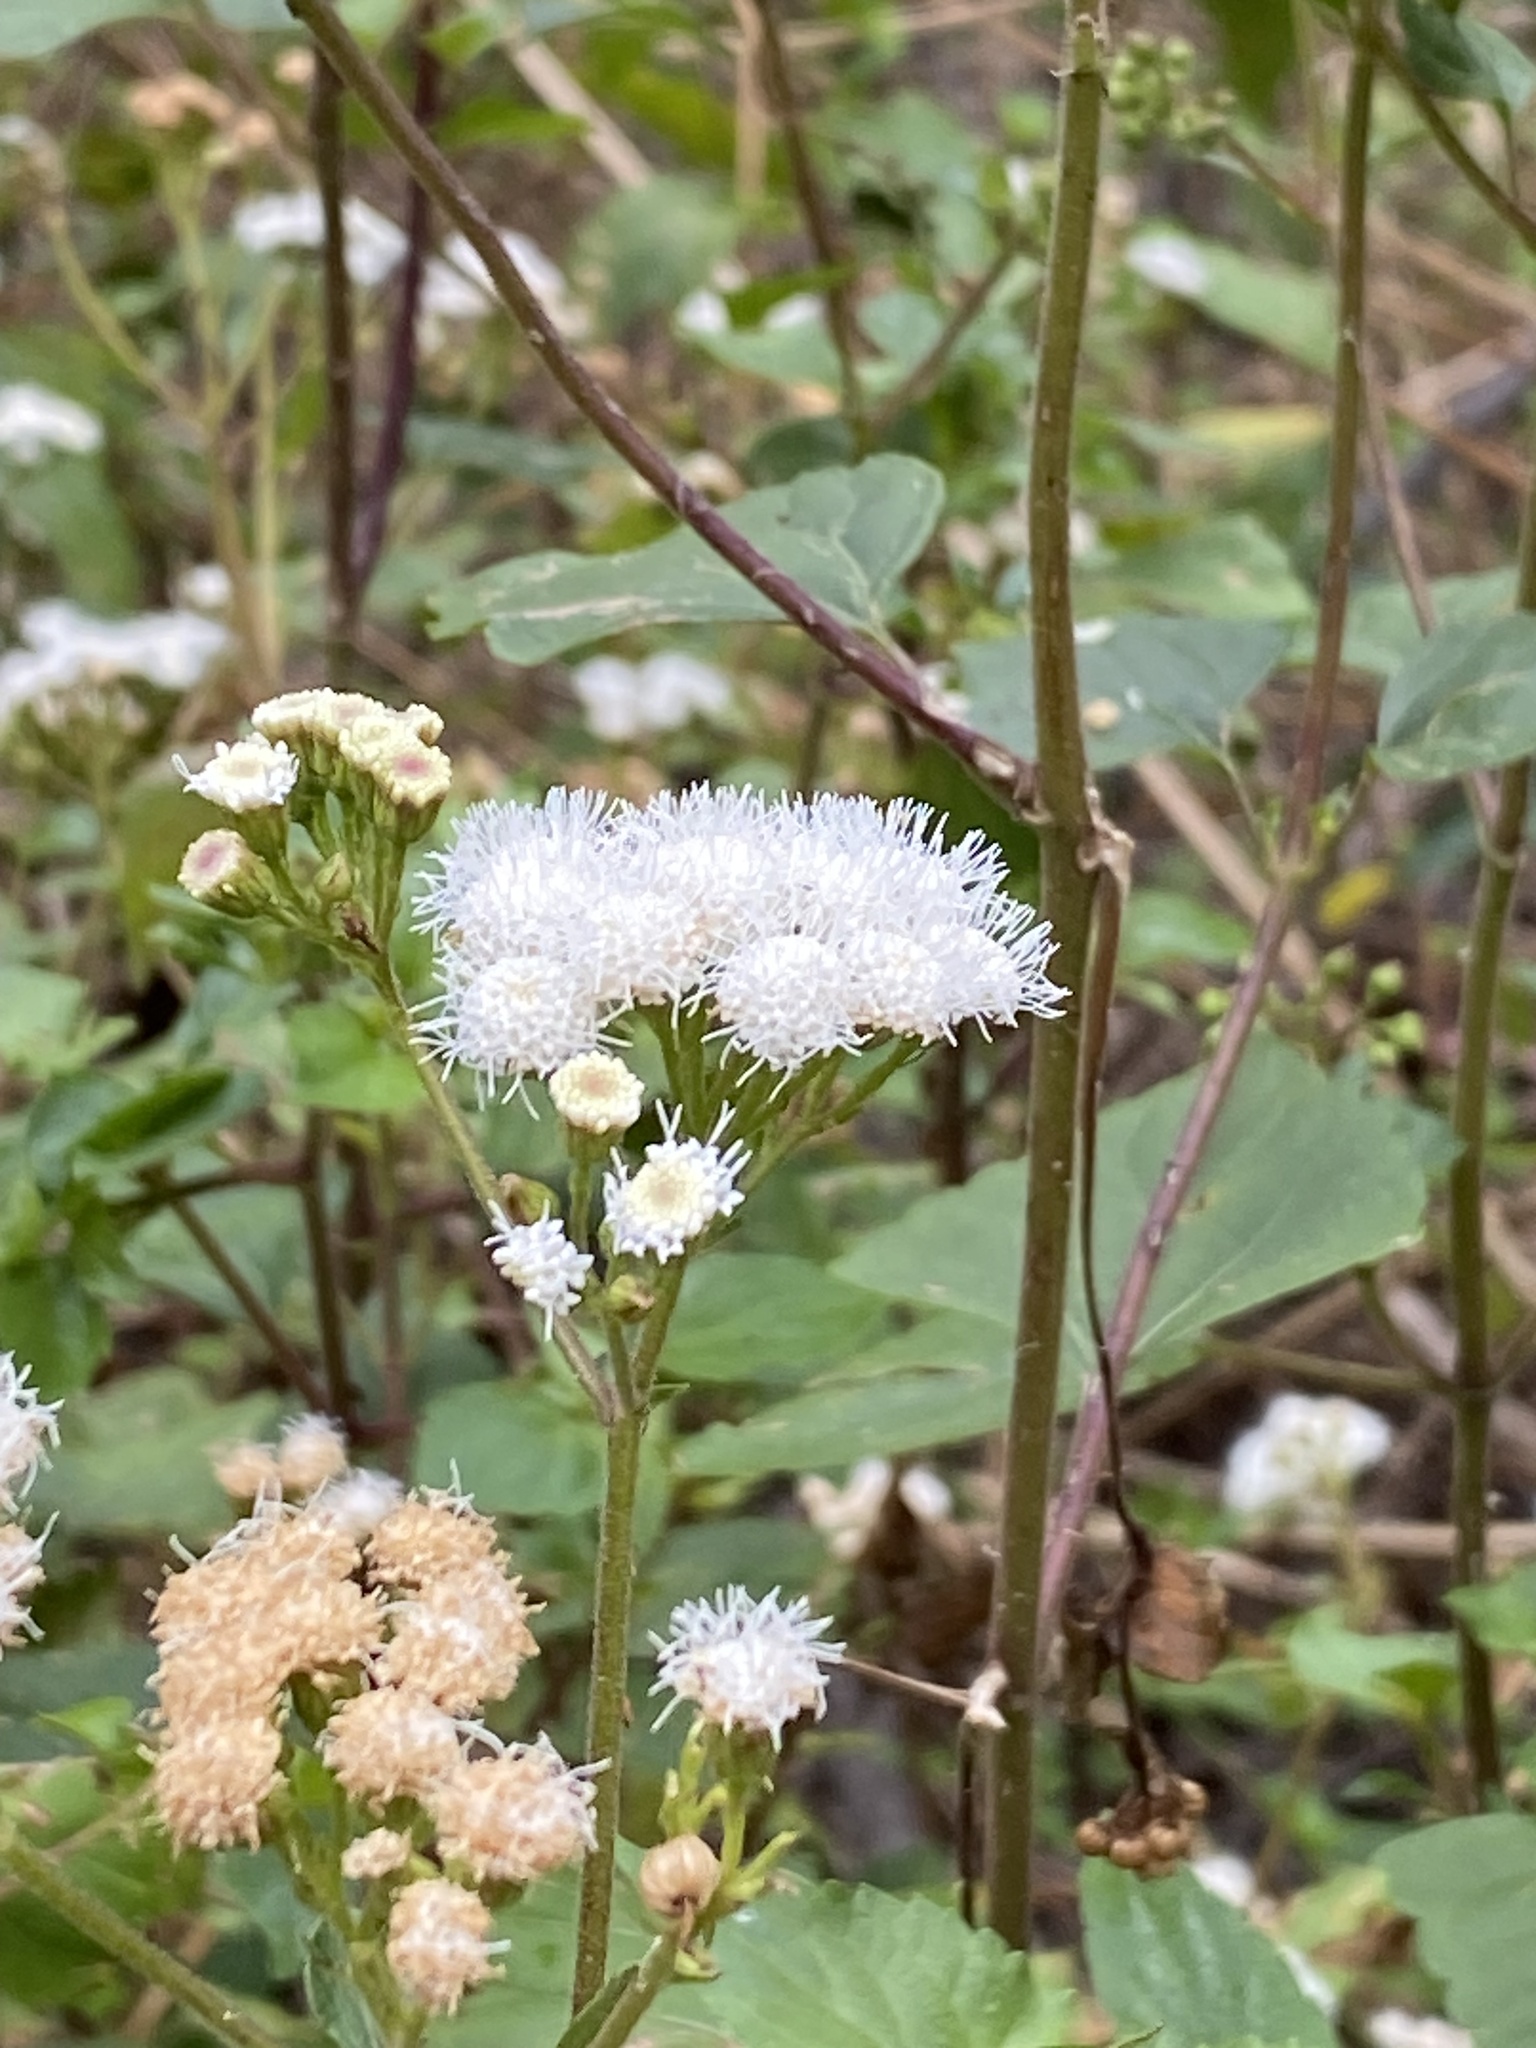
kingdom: Plantae
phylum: Tracheophyta
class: Magnoliopsida
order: Asterales
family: Asteraceae
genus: Ageratina
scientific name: Ageratina adenophora
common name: Sticky snakeroot
